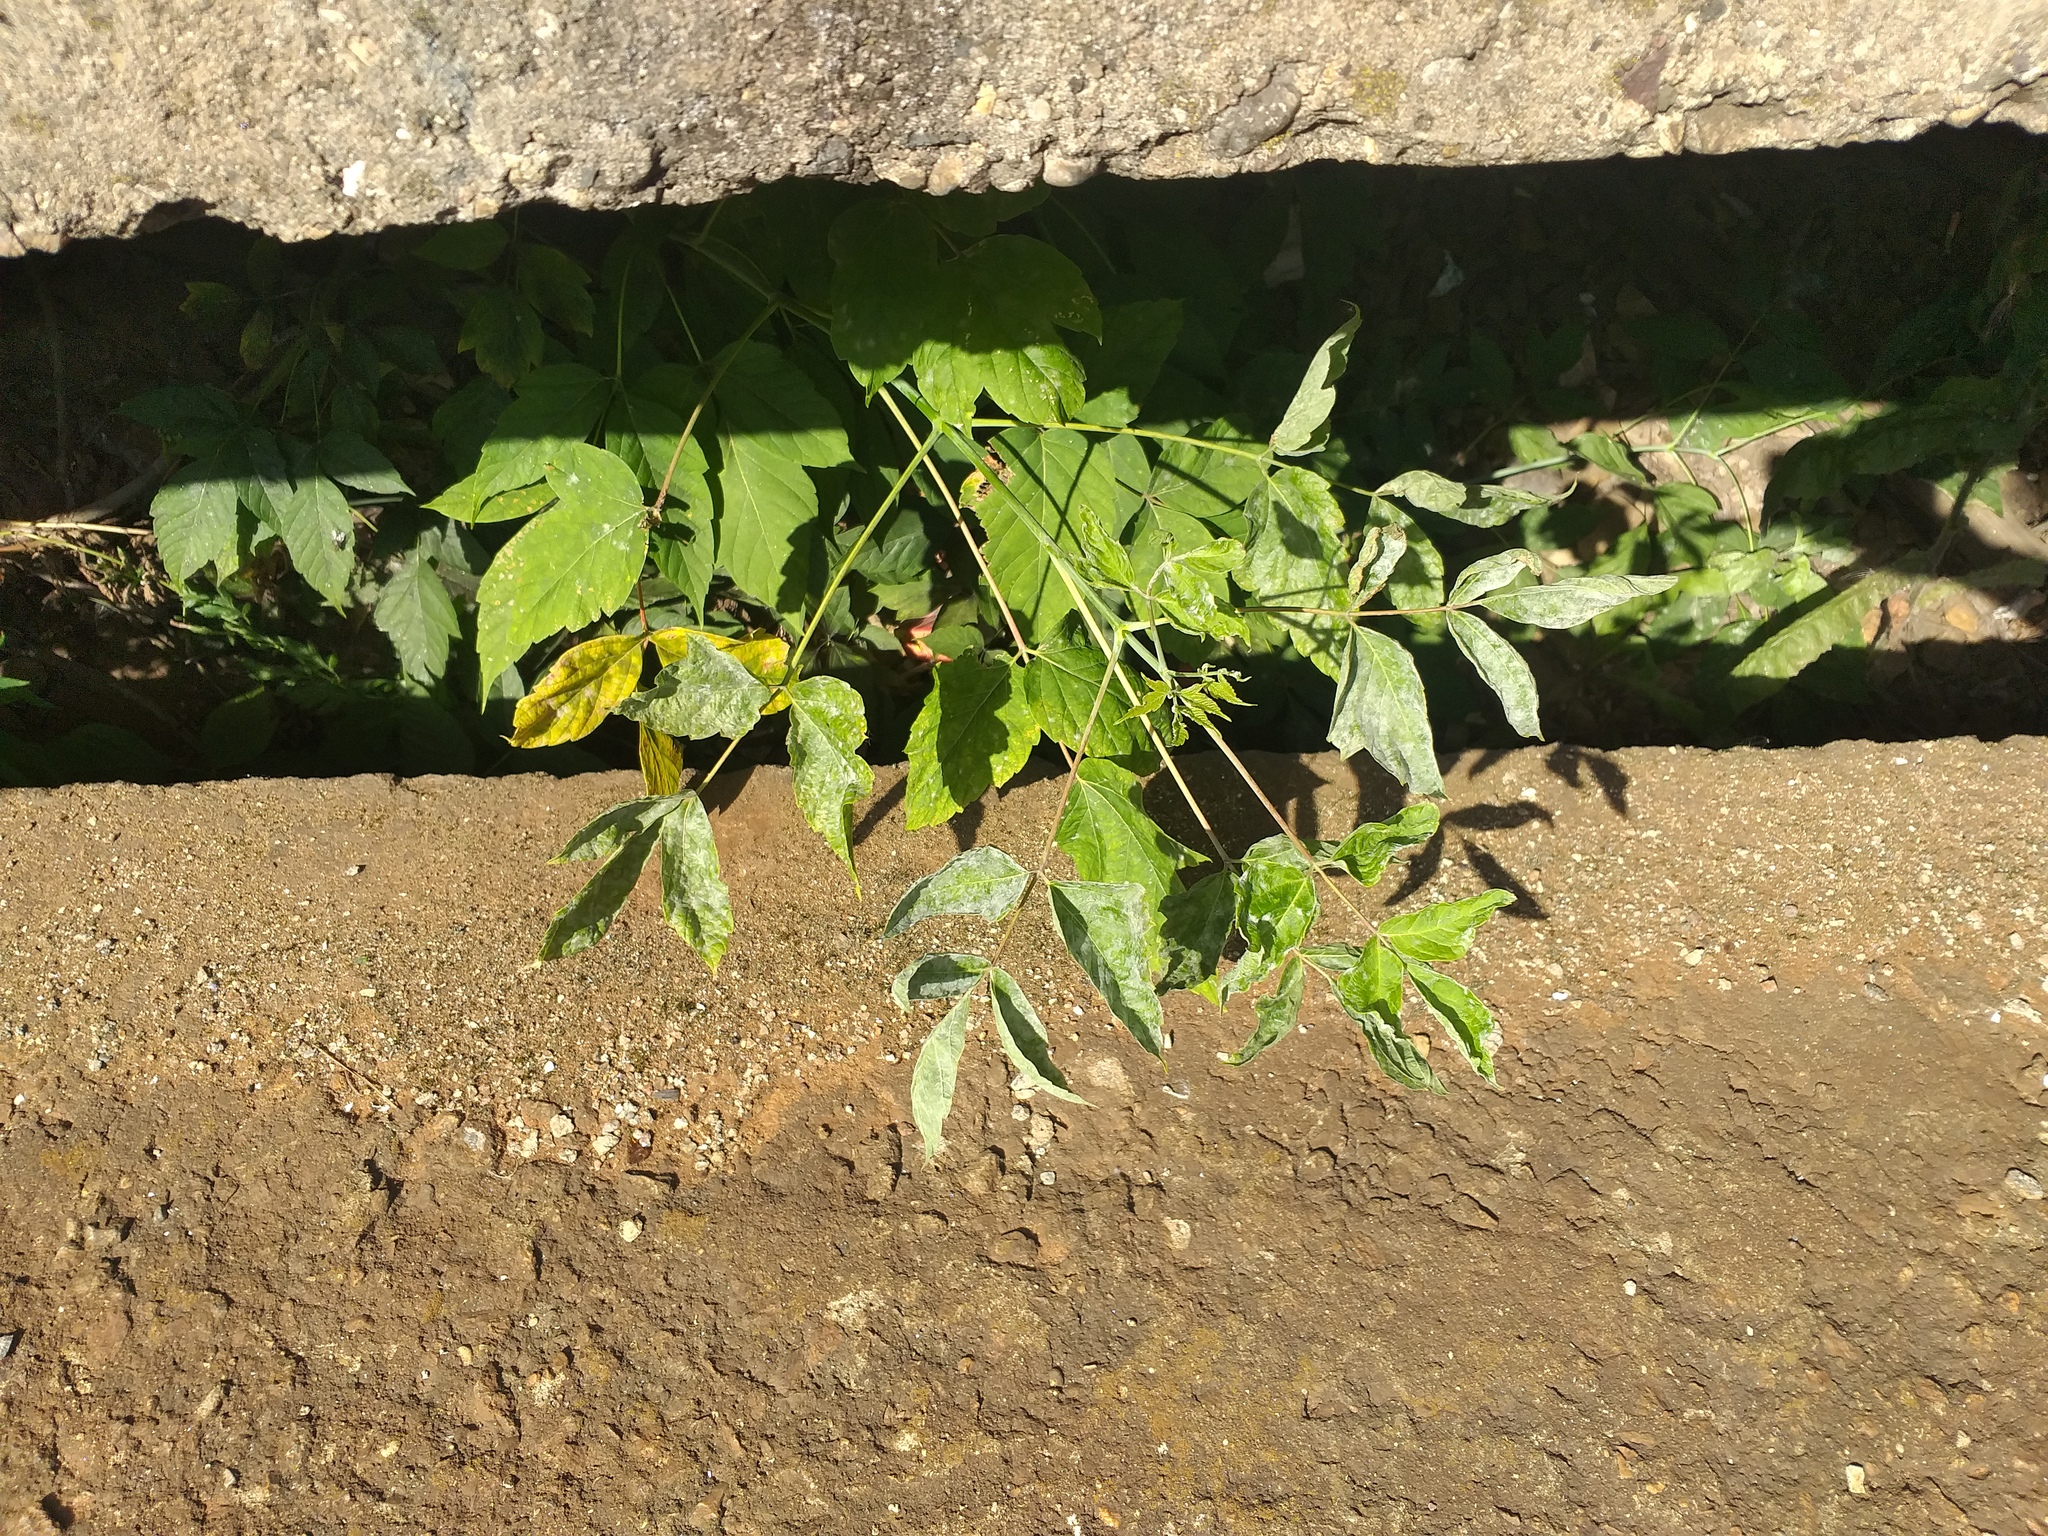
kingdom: Plantae
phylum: Tracheophyta
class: Magnoliopsida
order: Sapindales
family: Sapindaceae
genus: Acer
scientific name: Acer negundo
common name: Ashleaf maple
